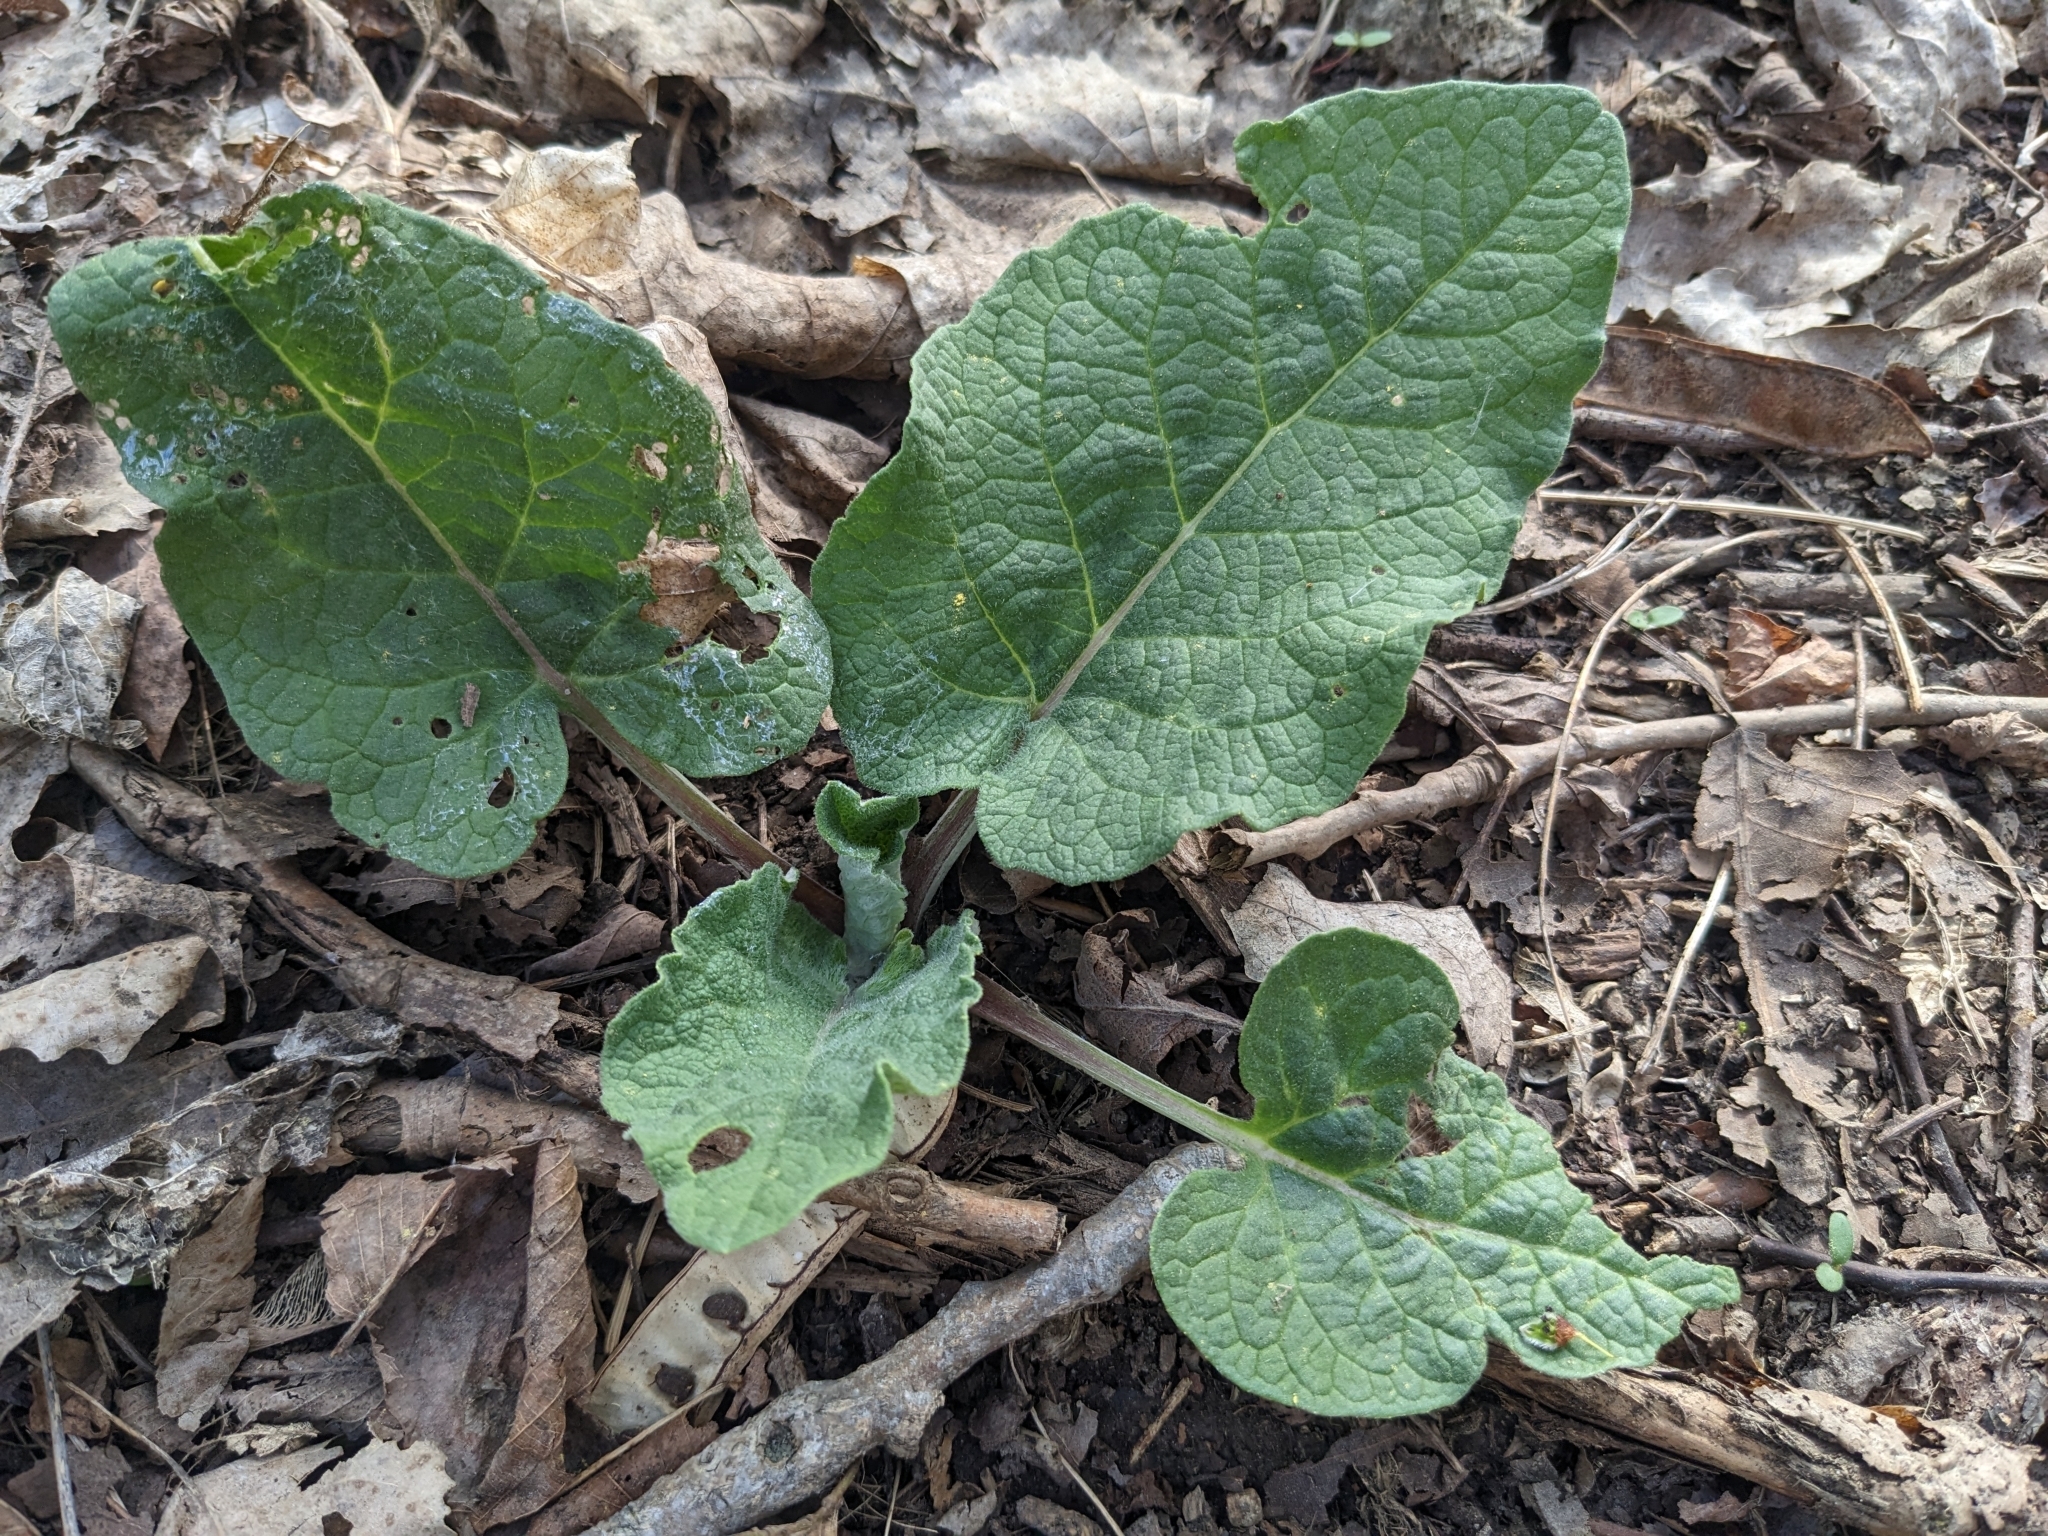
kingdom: Plantae
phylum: Tracheophyta
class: Magnoliopsida
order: Asterales
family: Asteraceae
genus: Arctium
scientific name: Arctium
